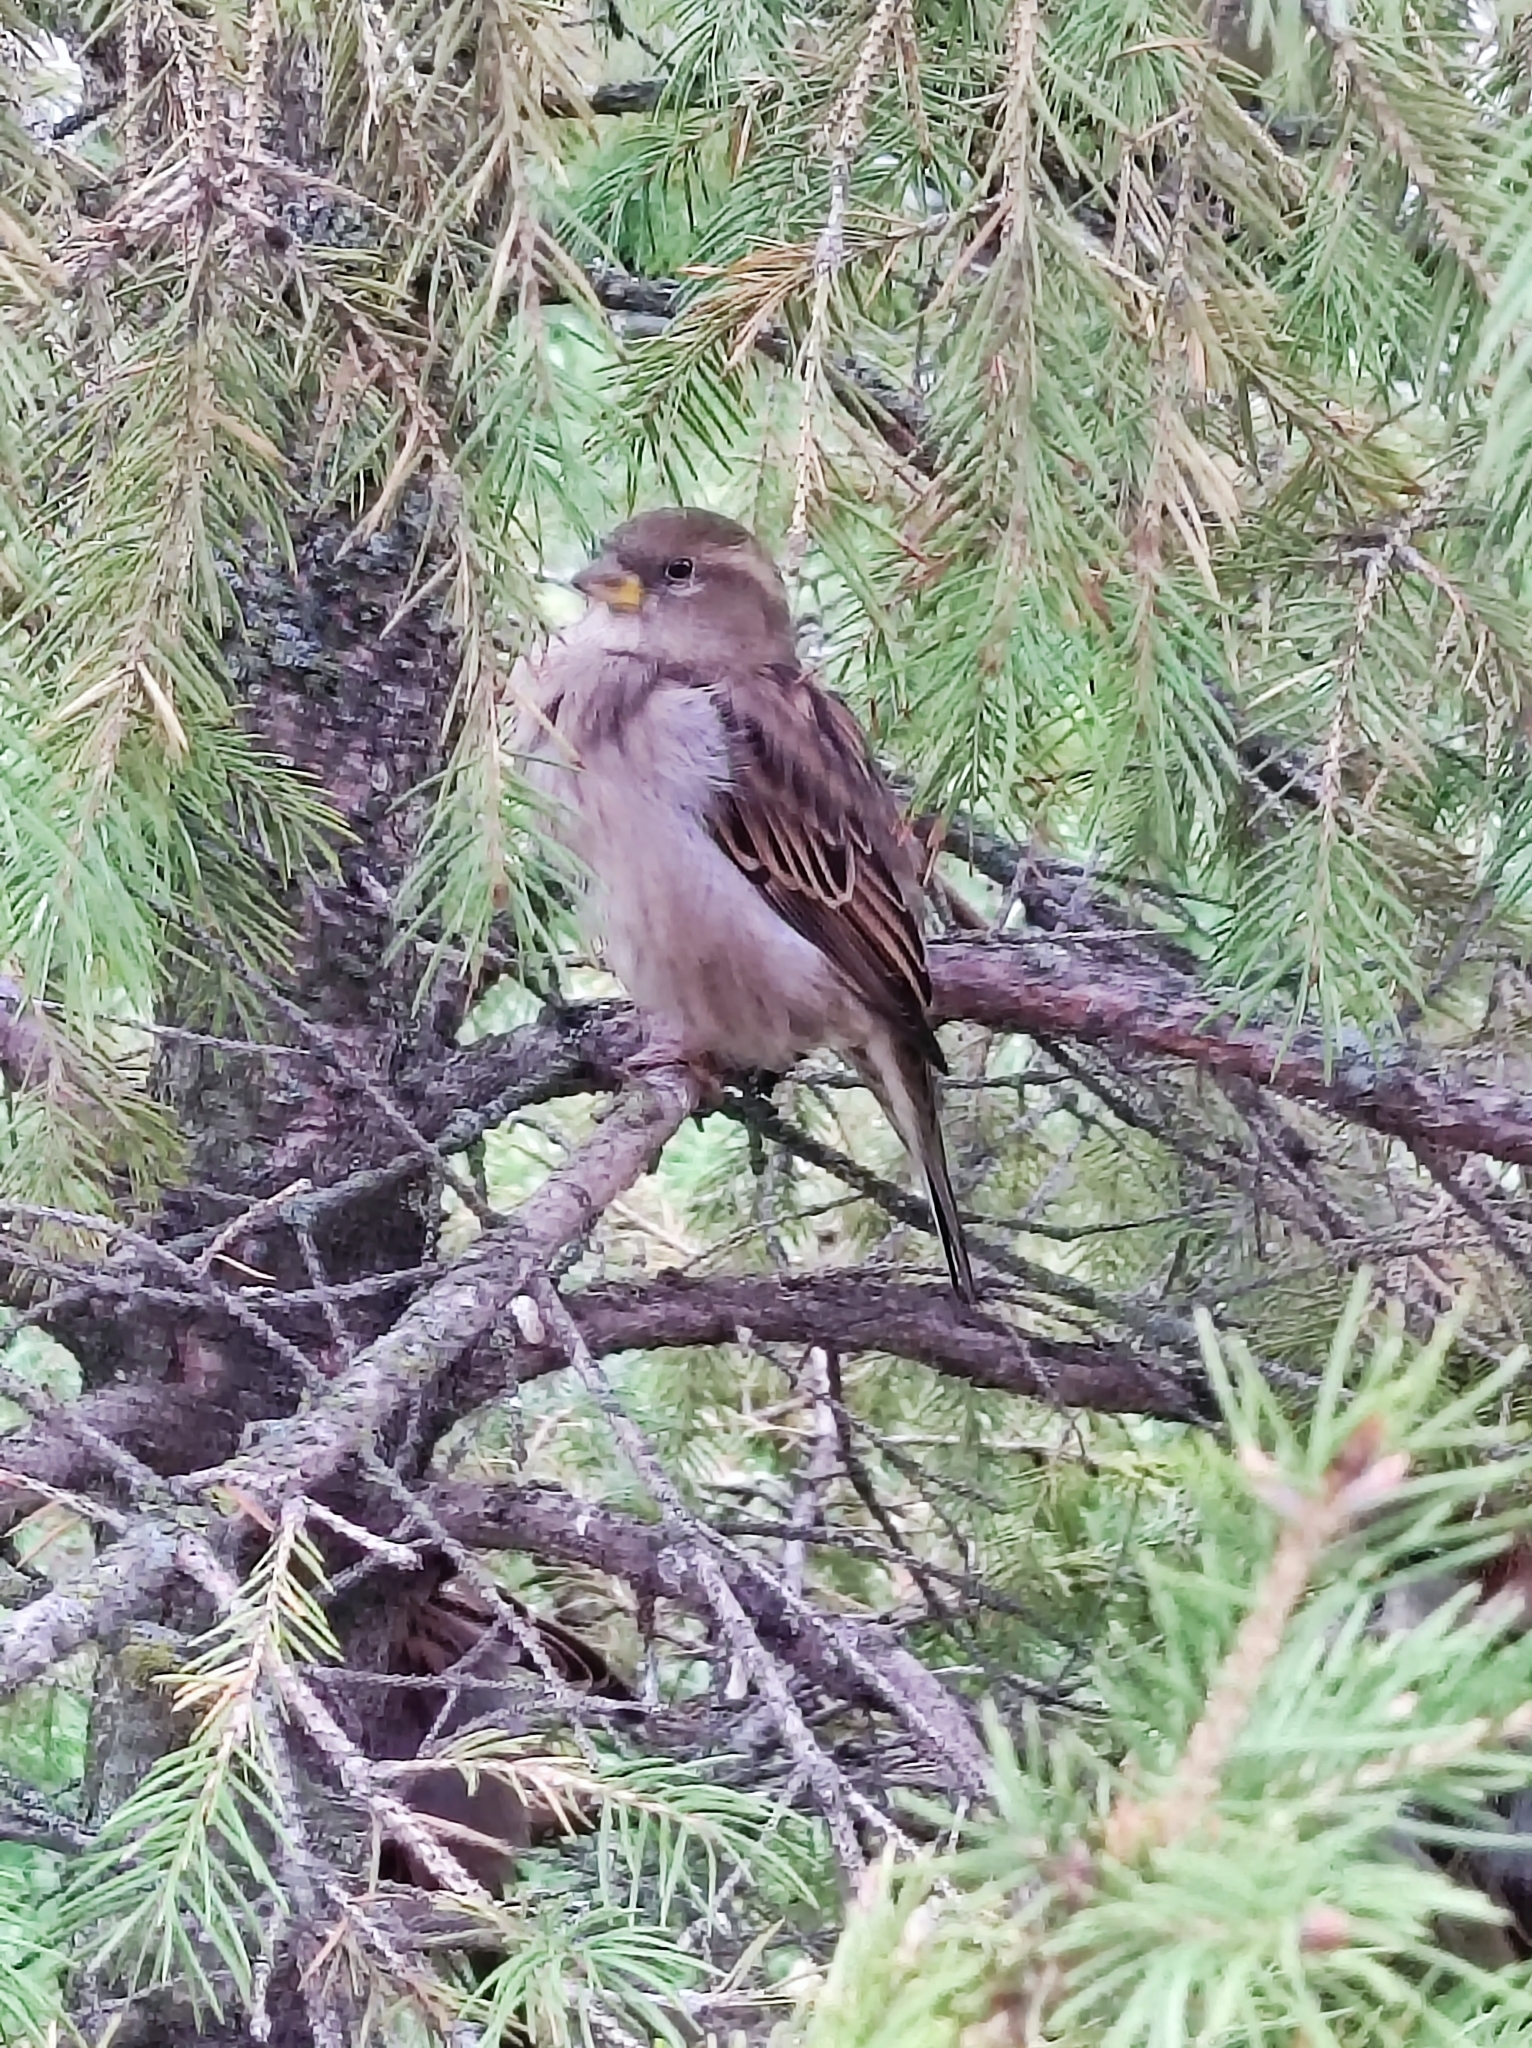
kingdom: Animalia
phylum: Chordata
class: Aves
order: Passeriformes
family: Passeridae
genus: Passer
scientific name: Passer domesticus
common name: House sparrow
